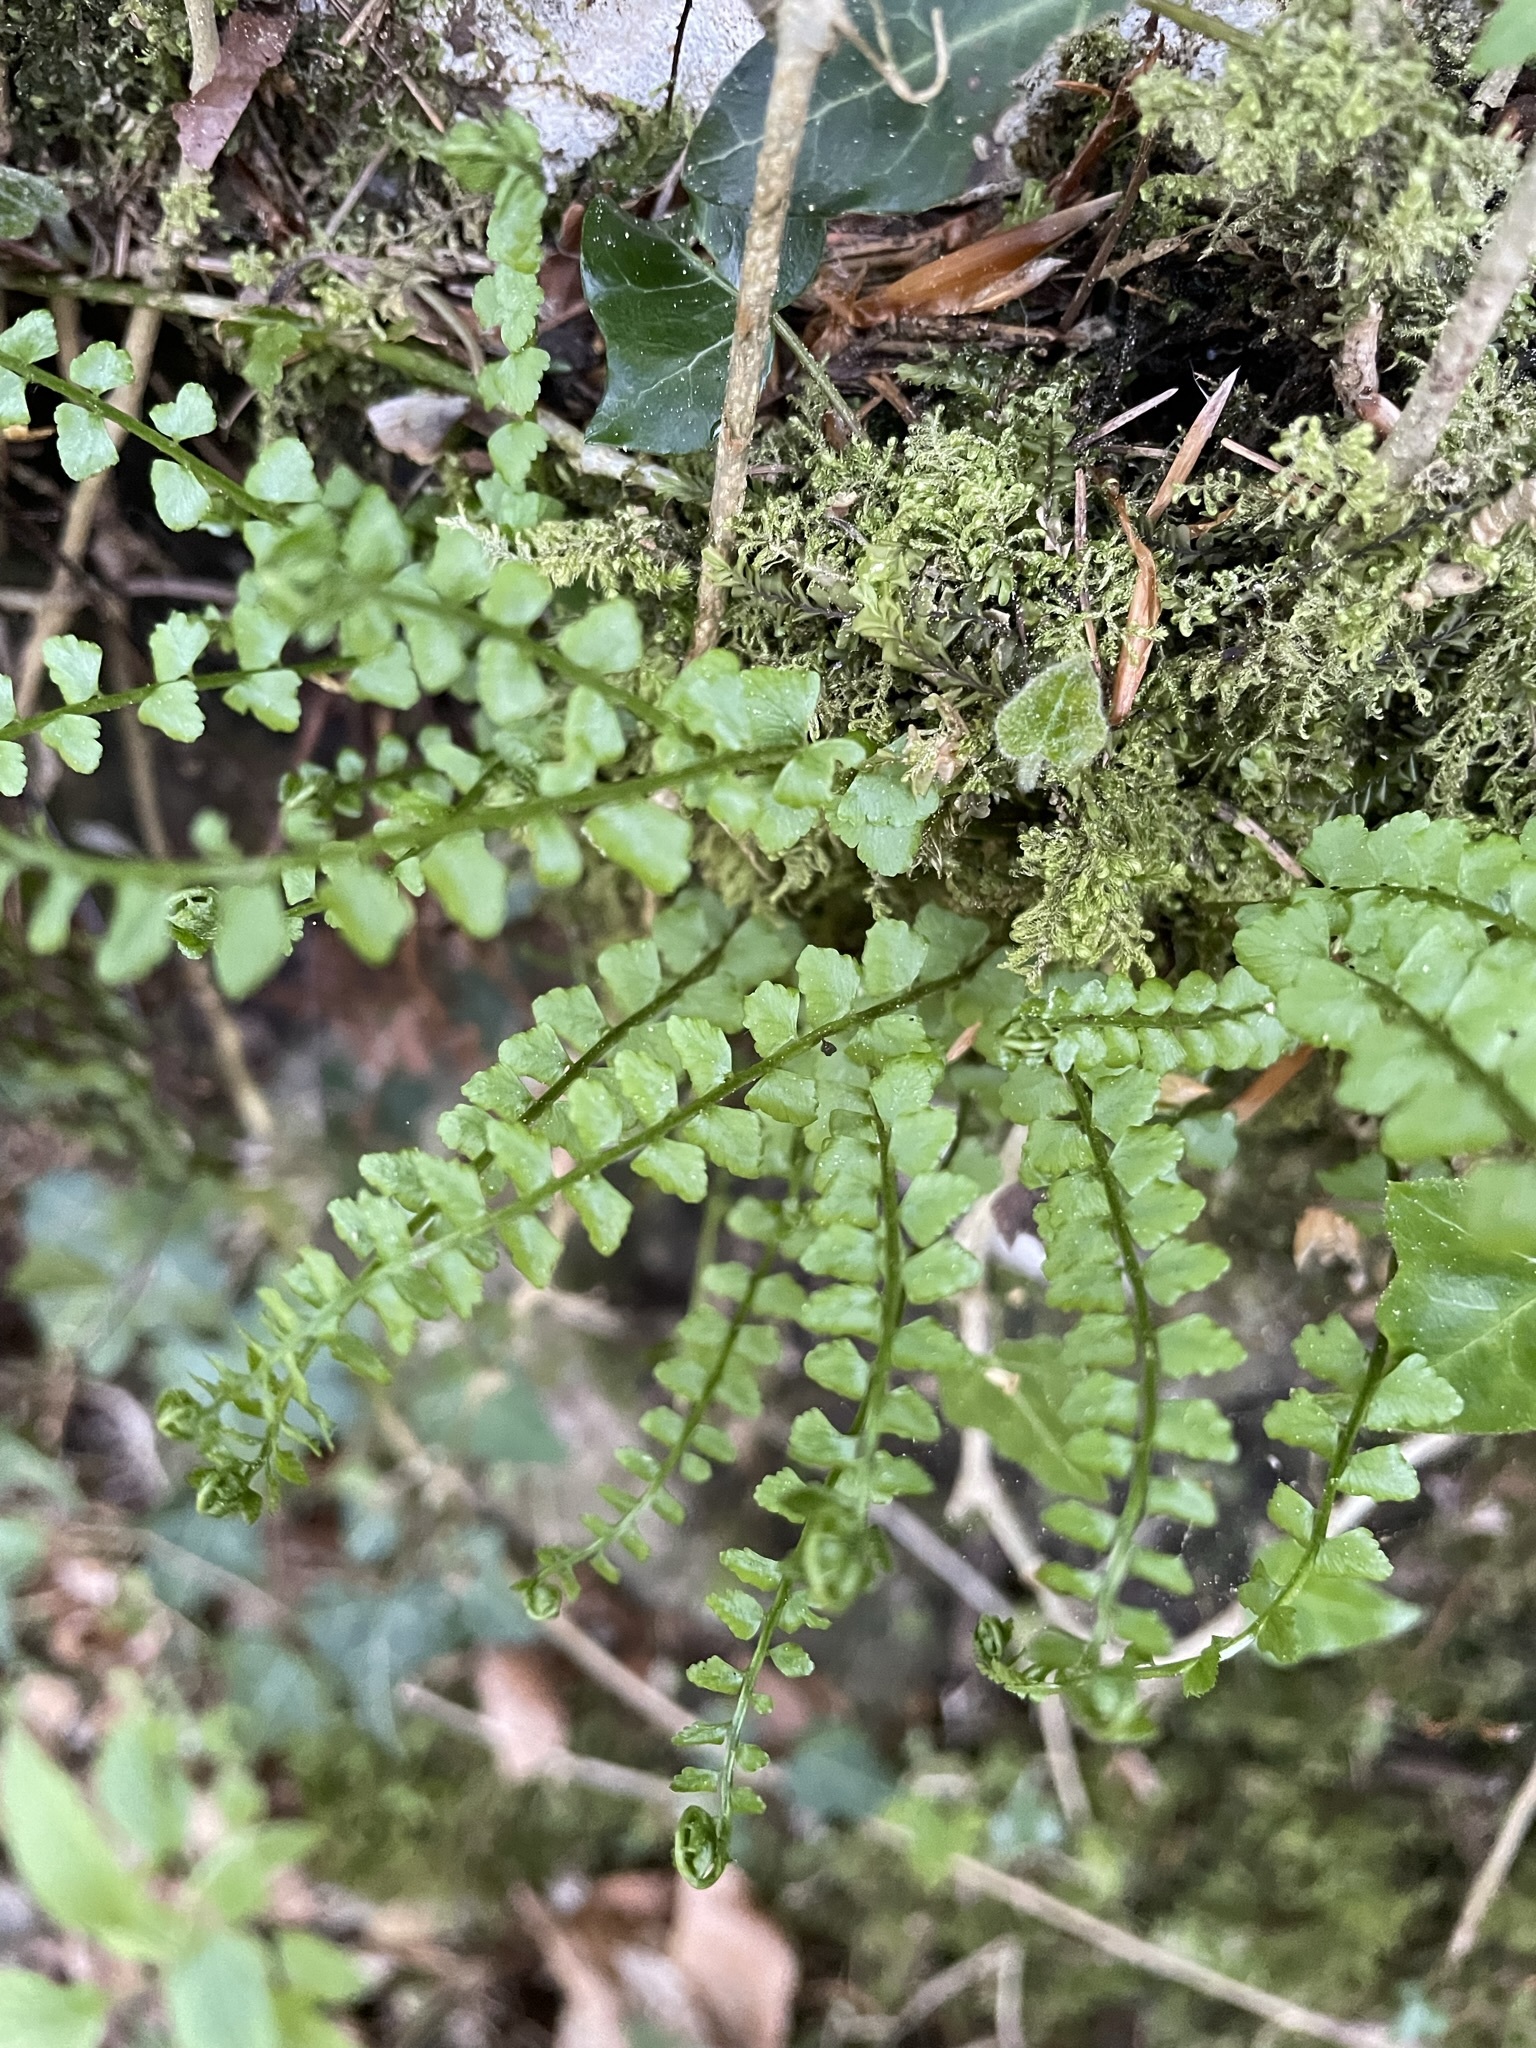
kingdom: Plantae
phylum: Tracheophyta
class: Polypodiopsida
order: Polypodiales
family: Aspleniaceae
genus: Asplenium
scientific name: Asplenium viride
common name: Green spleenwort
